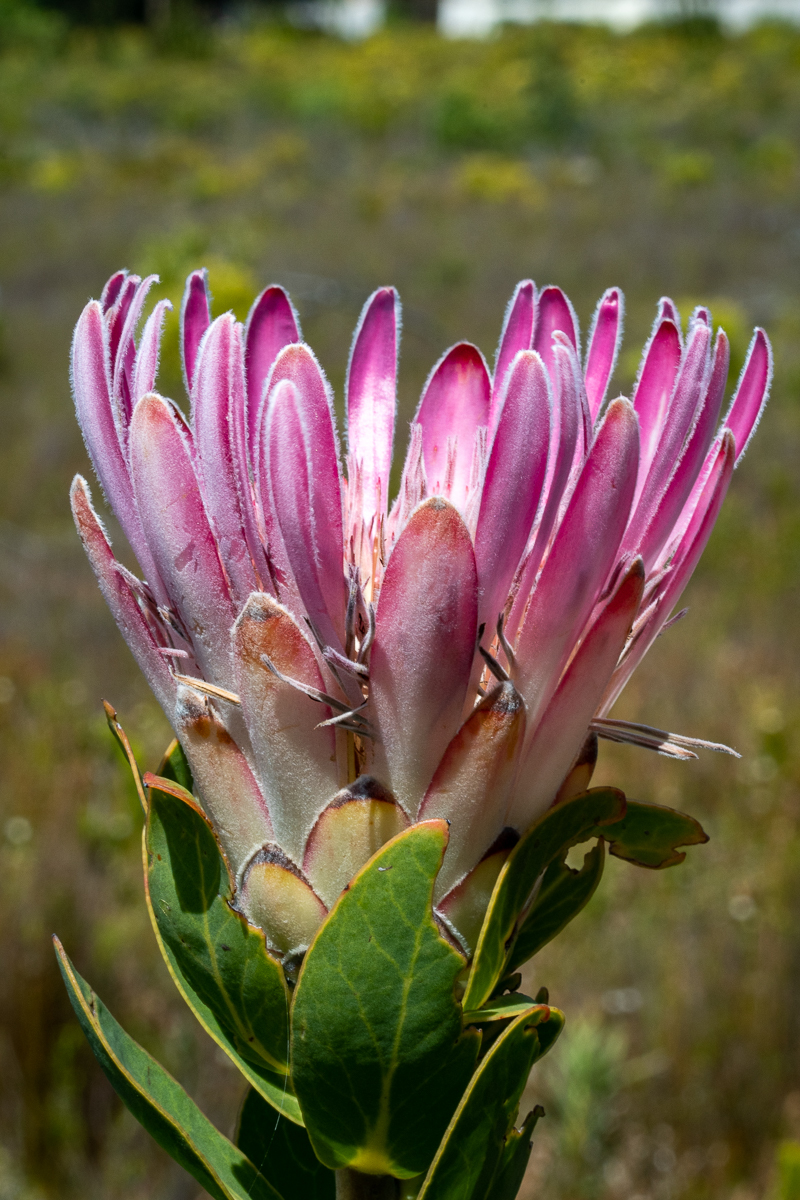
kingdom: Plantae
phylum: Tracheophyta
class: Magnoliopsida
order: Proteales
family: Proteaceae
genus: Protea
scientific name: Protea compacta
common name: Bot river protea
